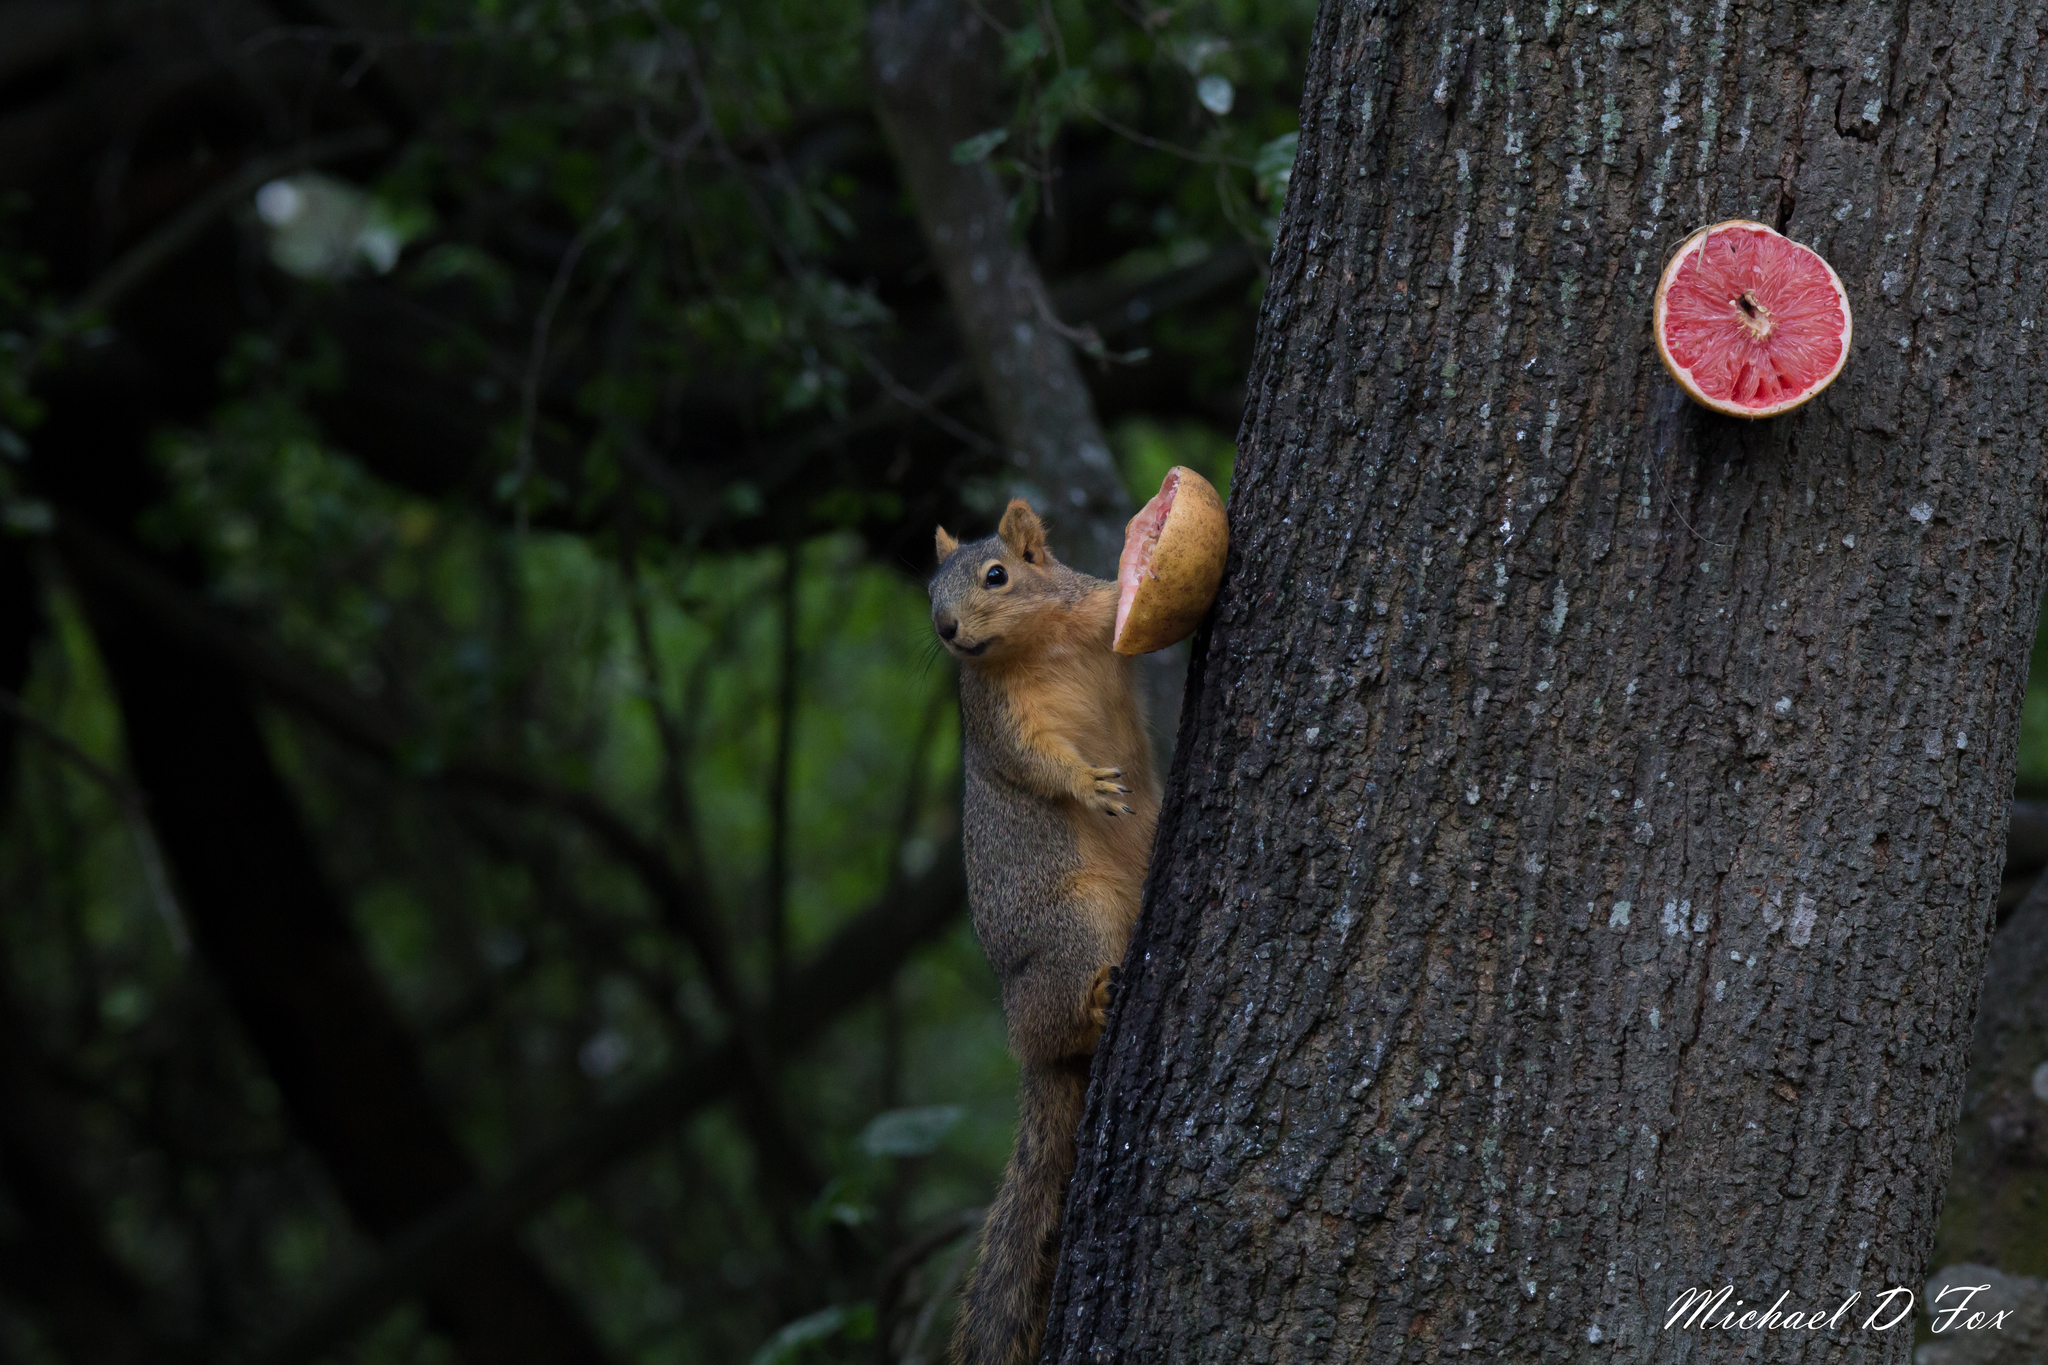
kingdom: Animalia
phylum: Chordata
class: Mammalia
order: Rodentia
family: Sciuridae
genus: Sciurus
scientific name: Sciurus niger
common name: Fox squirrel
